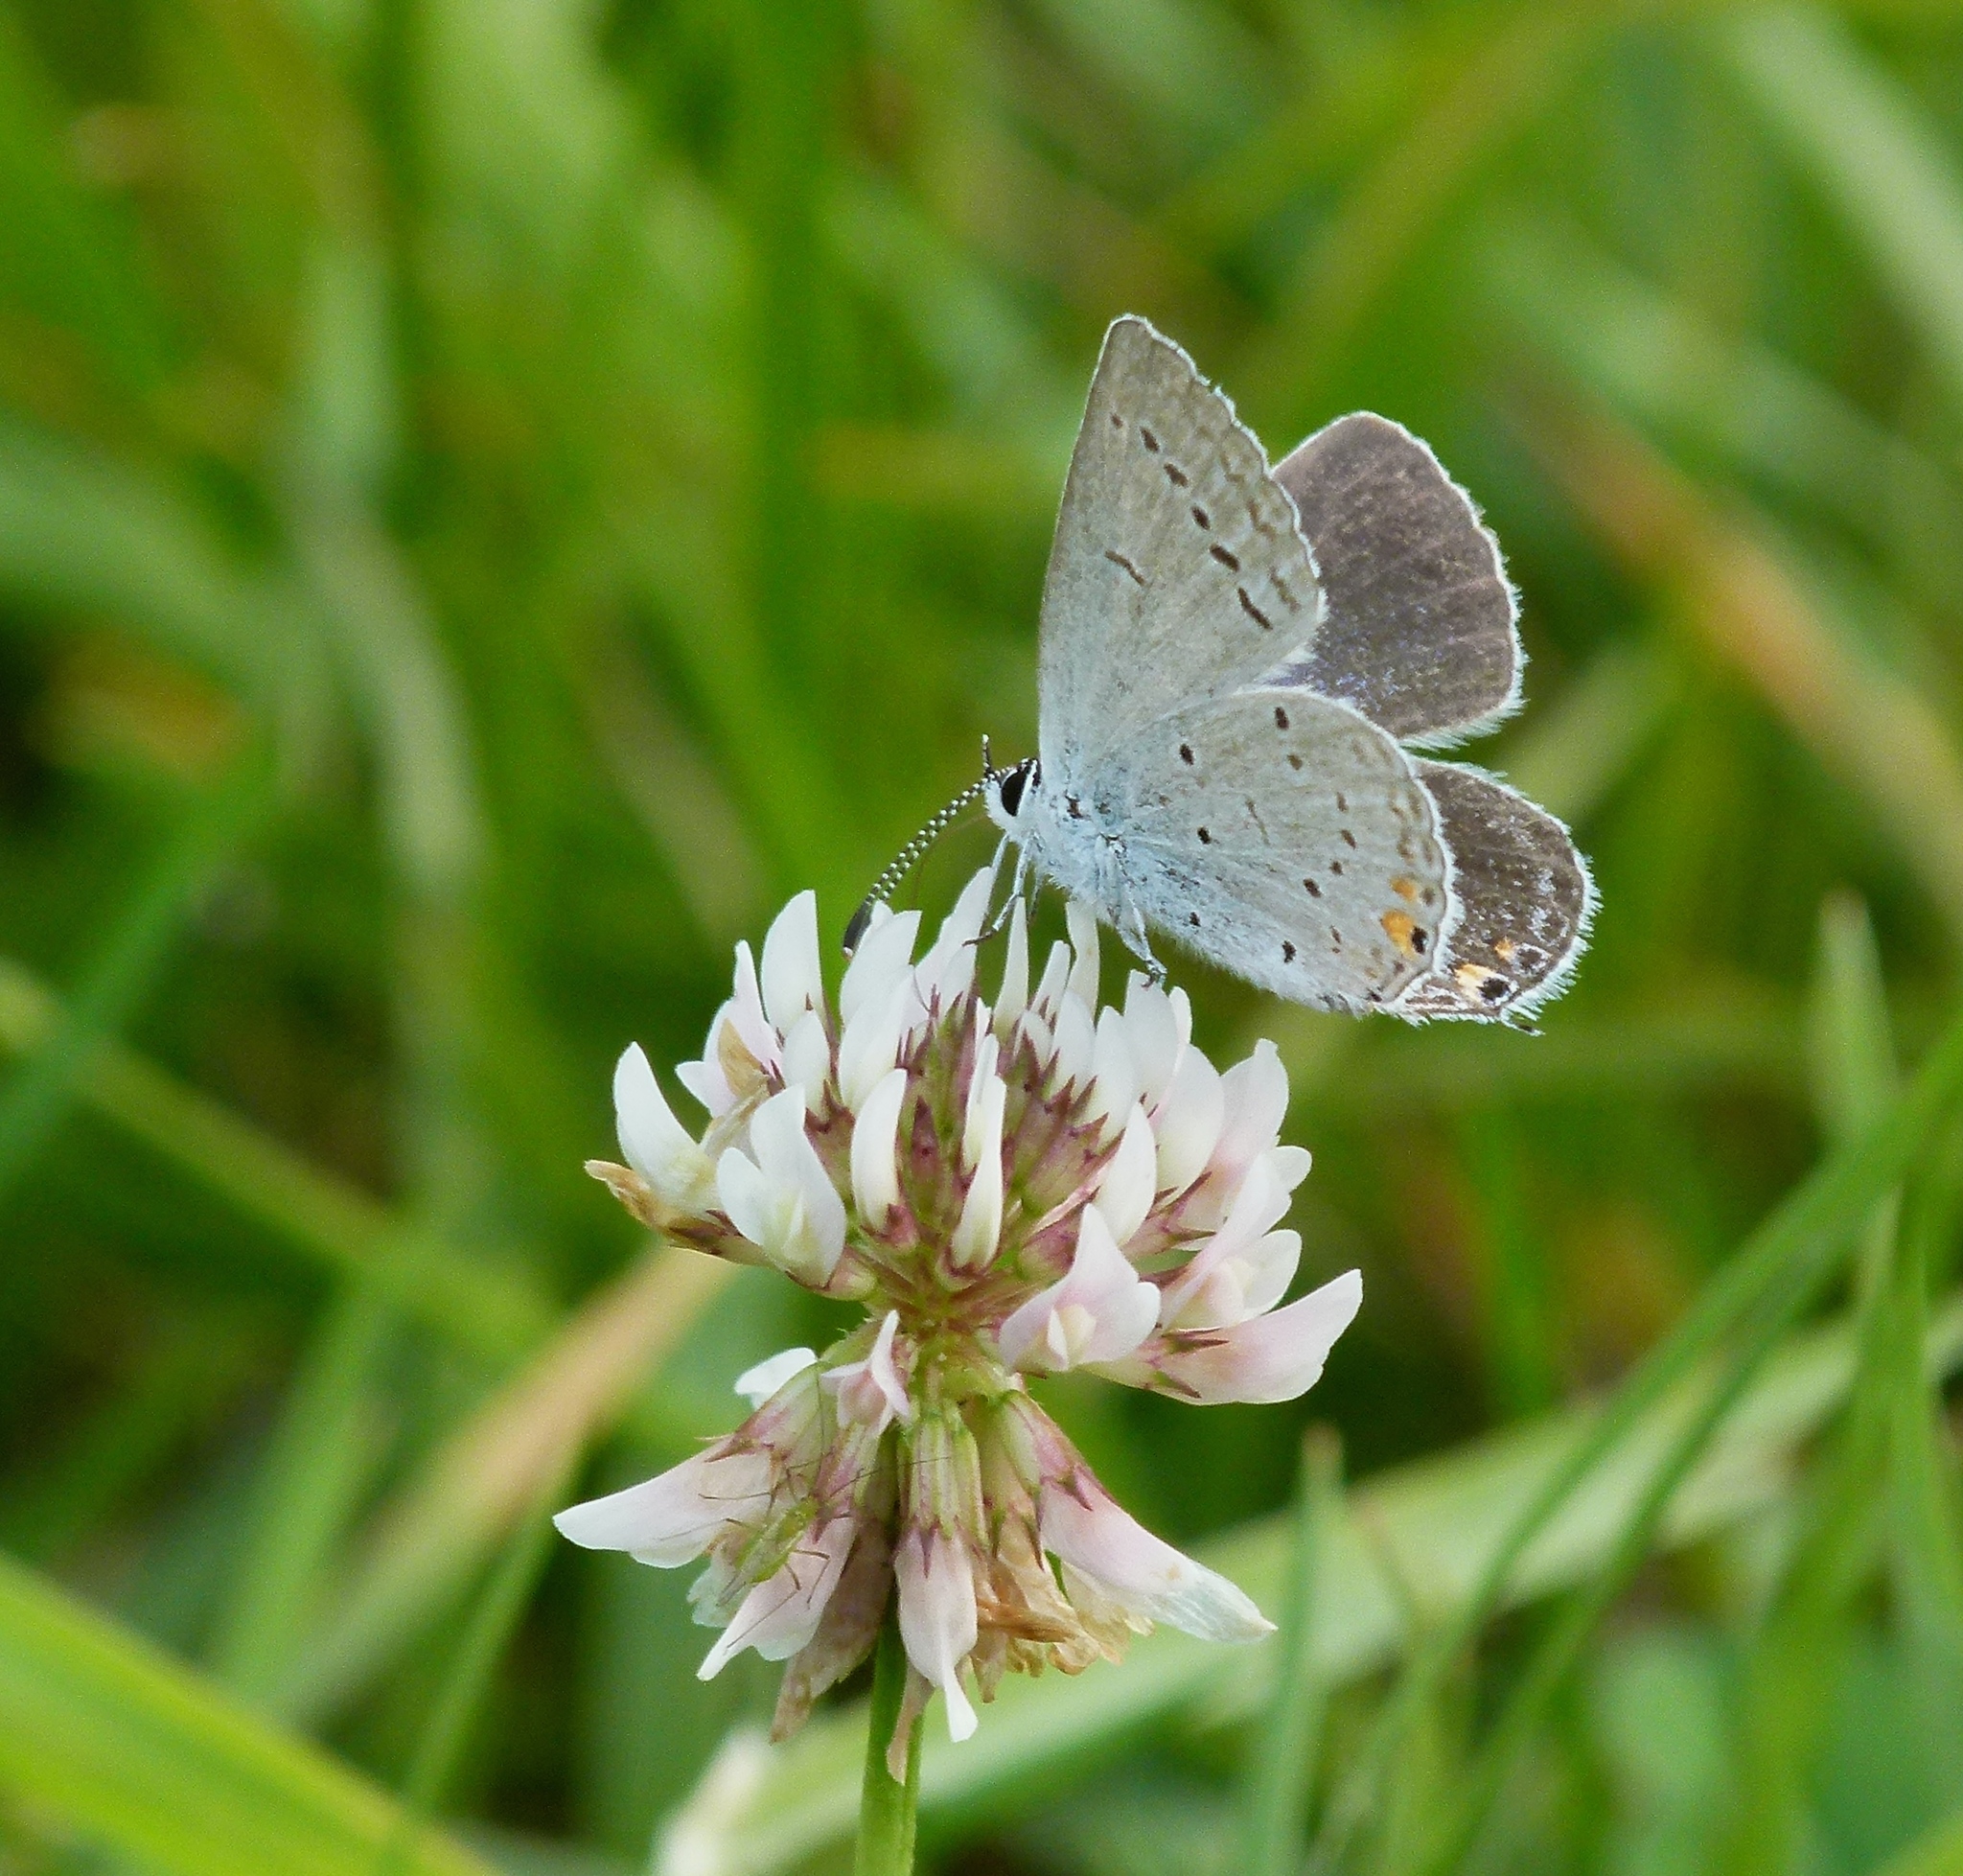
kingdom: Animalia
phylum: Arthropoda
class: Insecta
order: Lepidoptera
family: Lycaenidae
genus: Elkalyce
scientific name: Elkalyce comyntas
